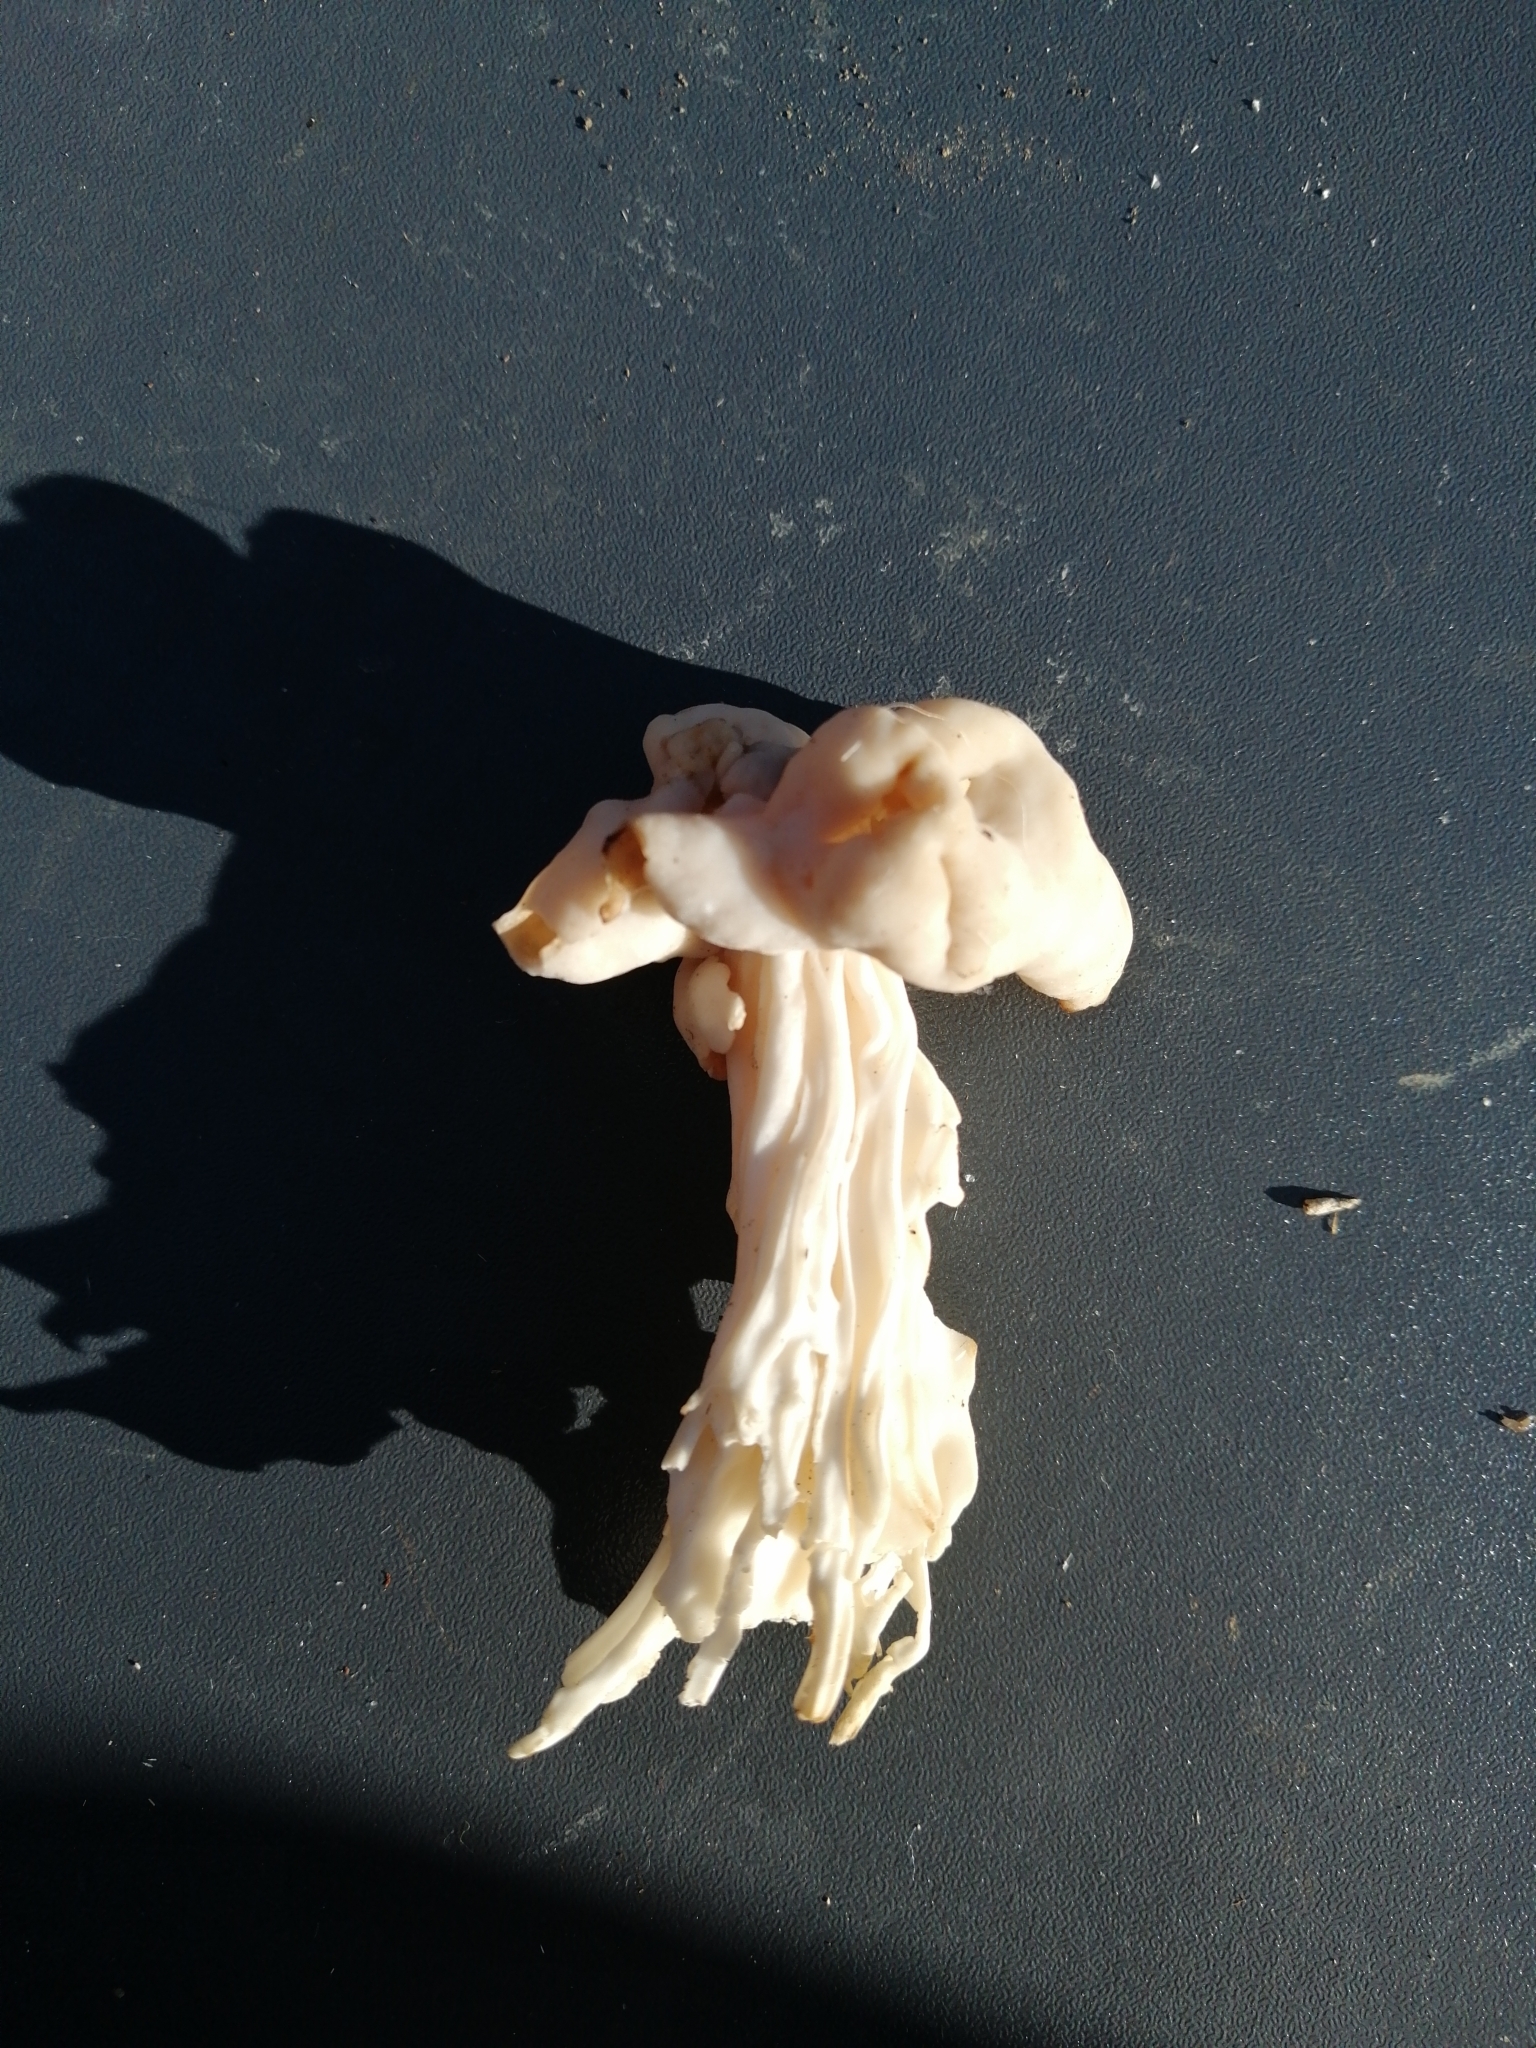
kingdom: Fungi
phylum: Ascomycota
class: Pezizomycetes
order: Pezizales
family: Helvellaceae
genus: Helvella
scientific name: Helvella crispa
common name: White saddle
